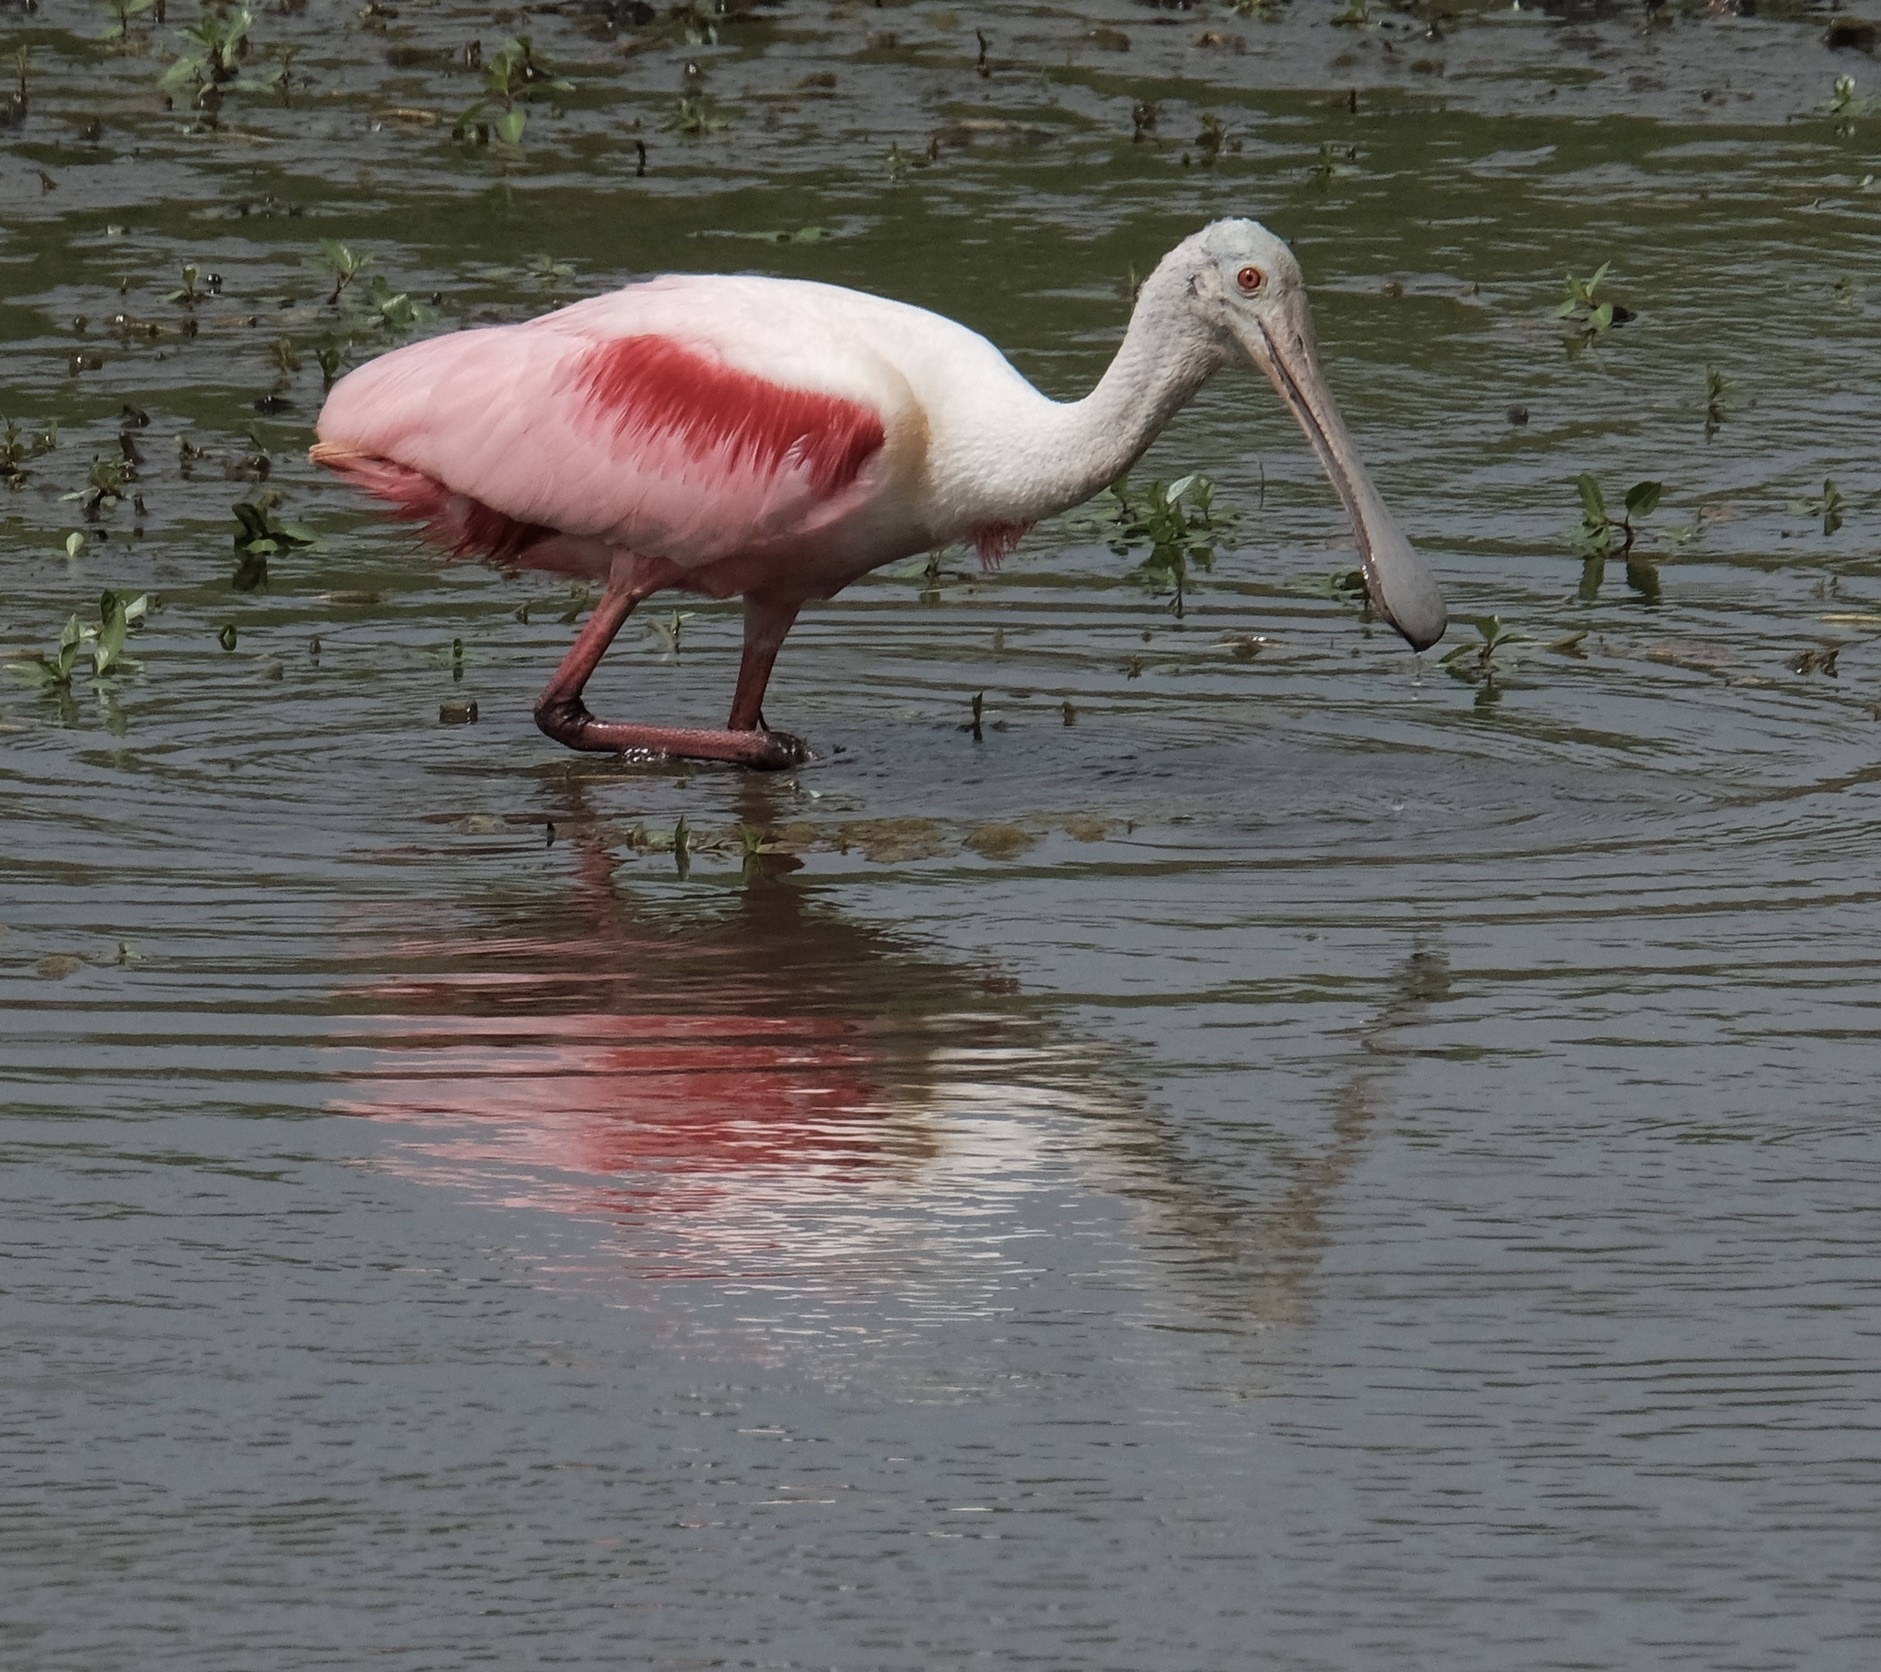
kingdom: Animalia
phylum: Chordata
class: Aves
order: Pelecaniformes
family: Threskiornithidae
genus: Platalea
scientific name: Platalea ajaja
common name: Roseate spoonbill
